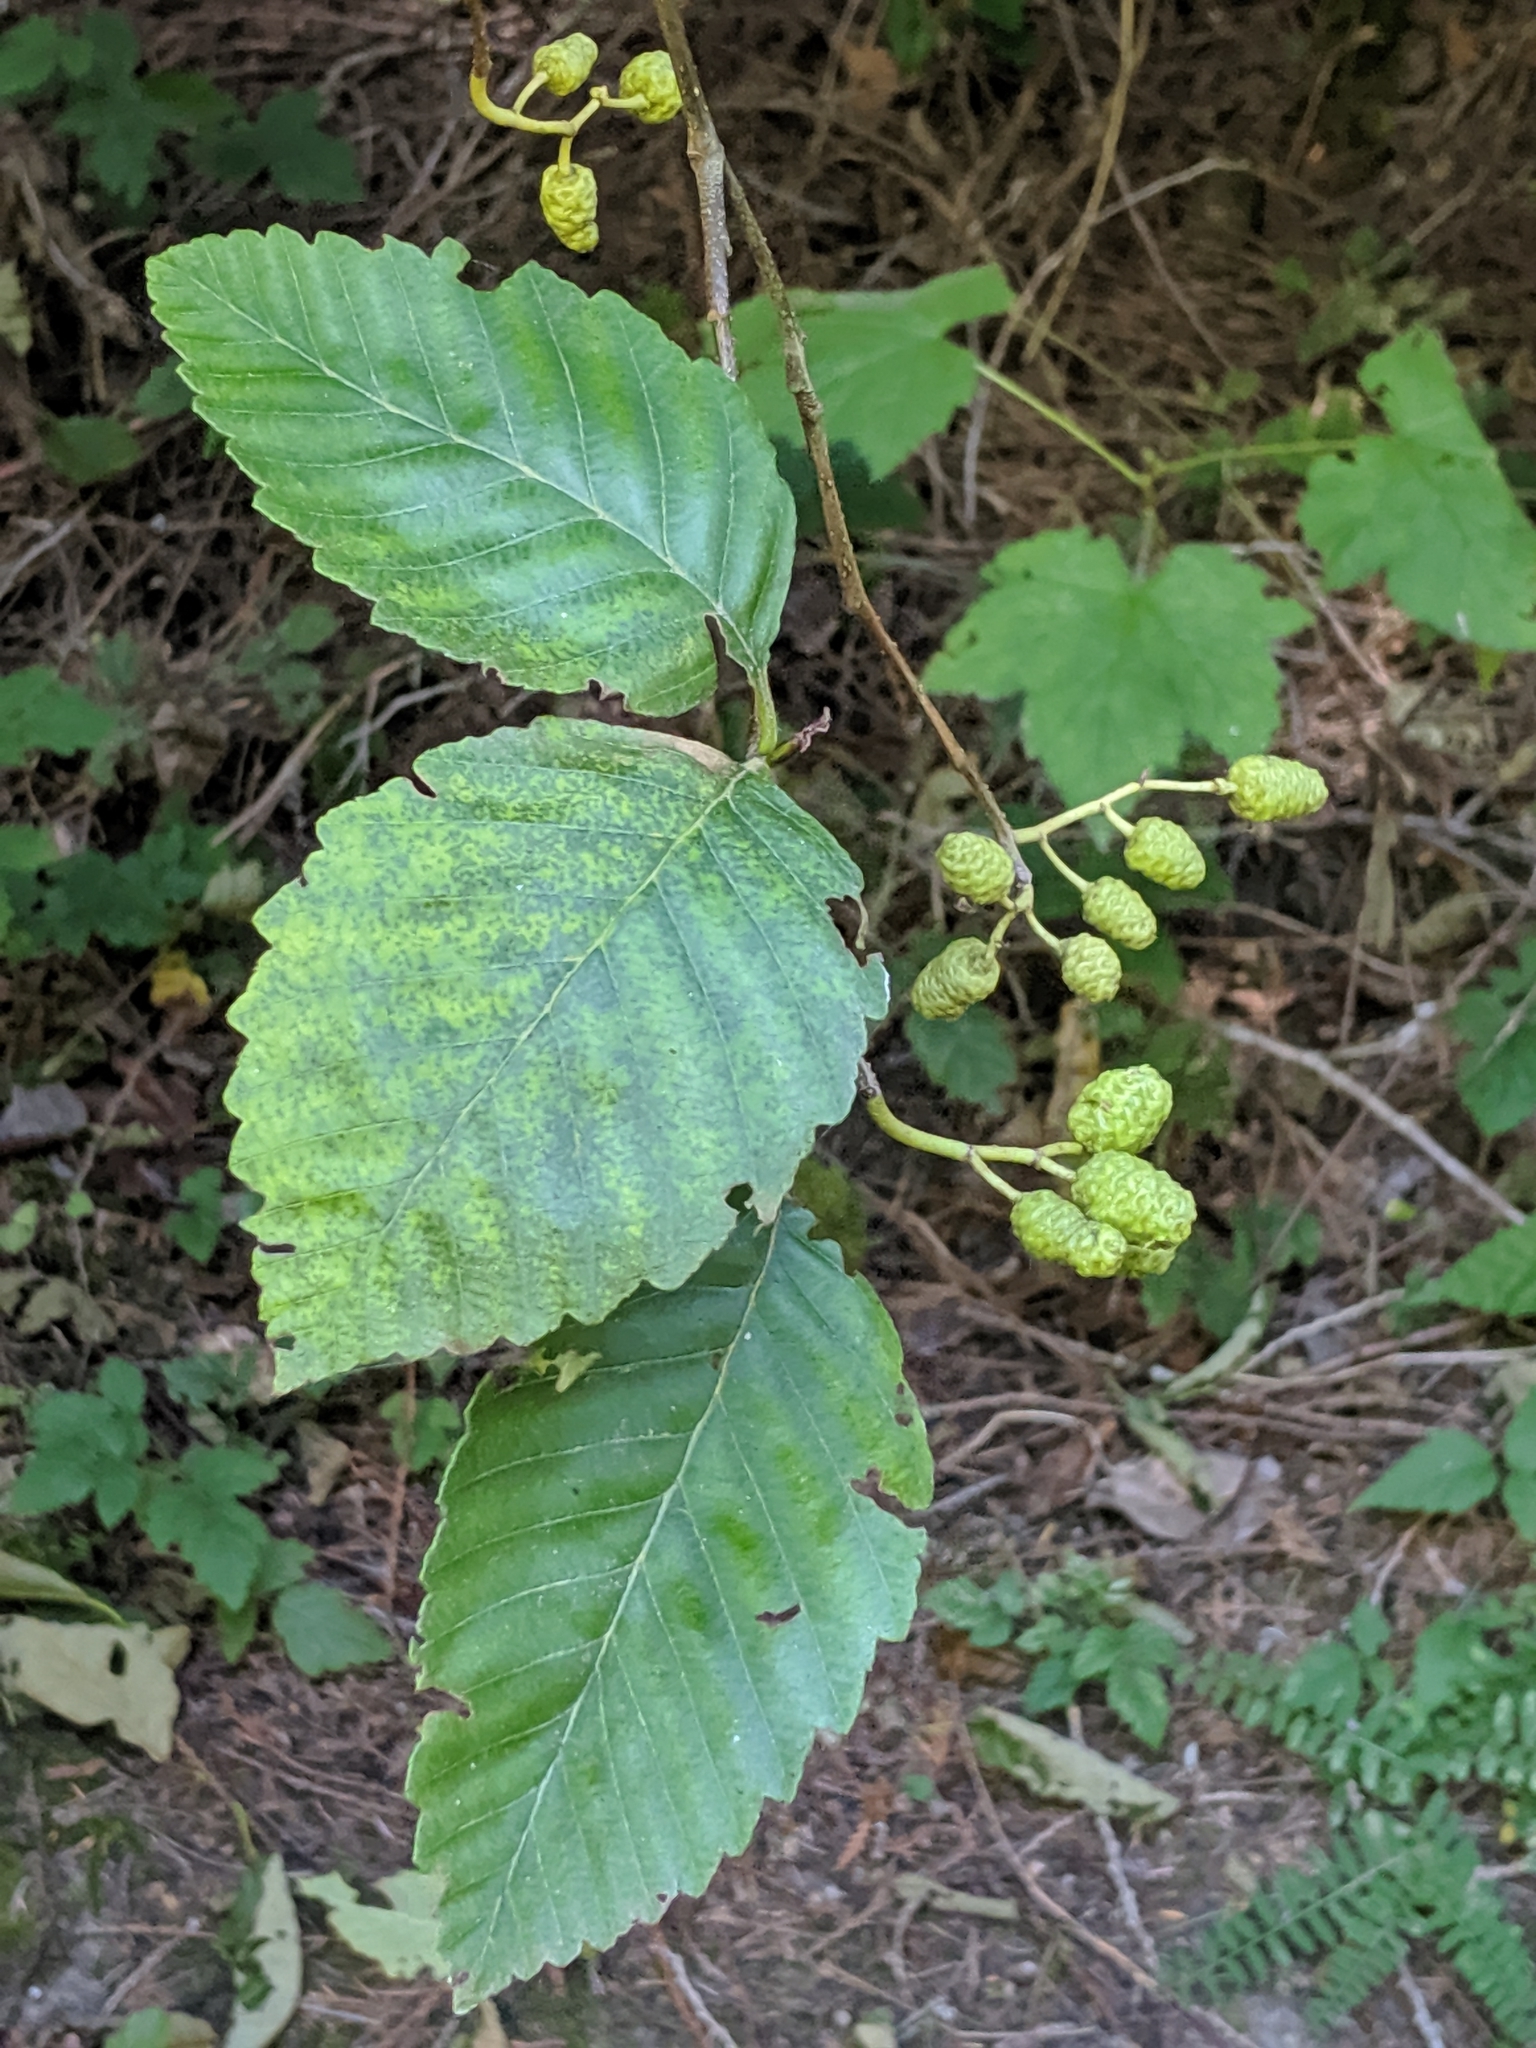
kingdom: Plantae
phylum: Tracheophyta
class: Magnoliopsida
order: Fagales
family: Betulaceae
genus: Alnus
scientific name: Alnus rubra
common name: Red alder
